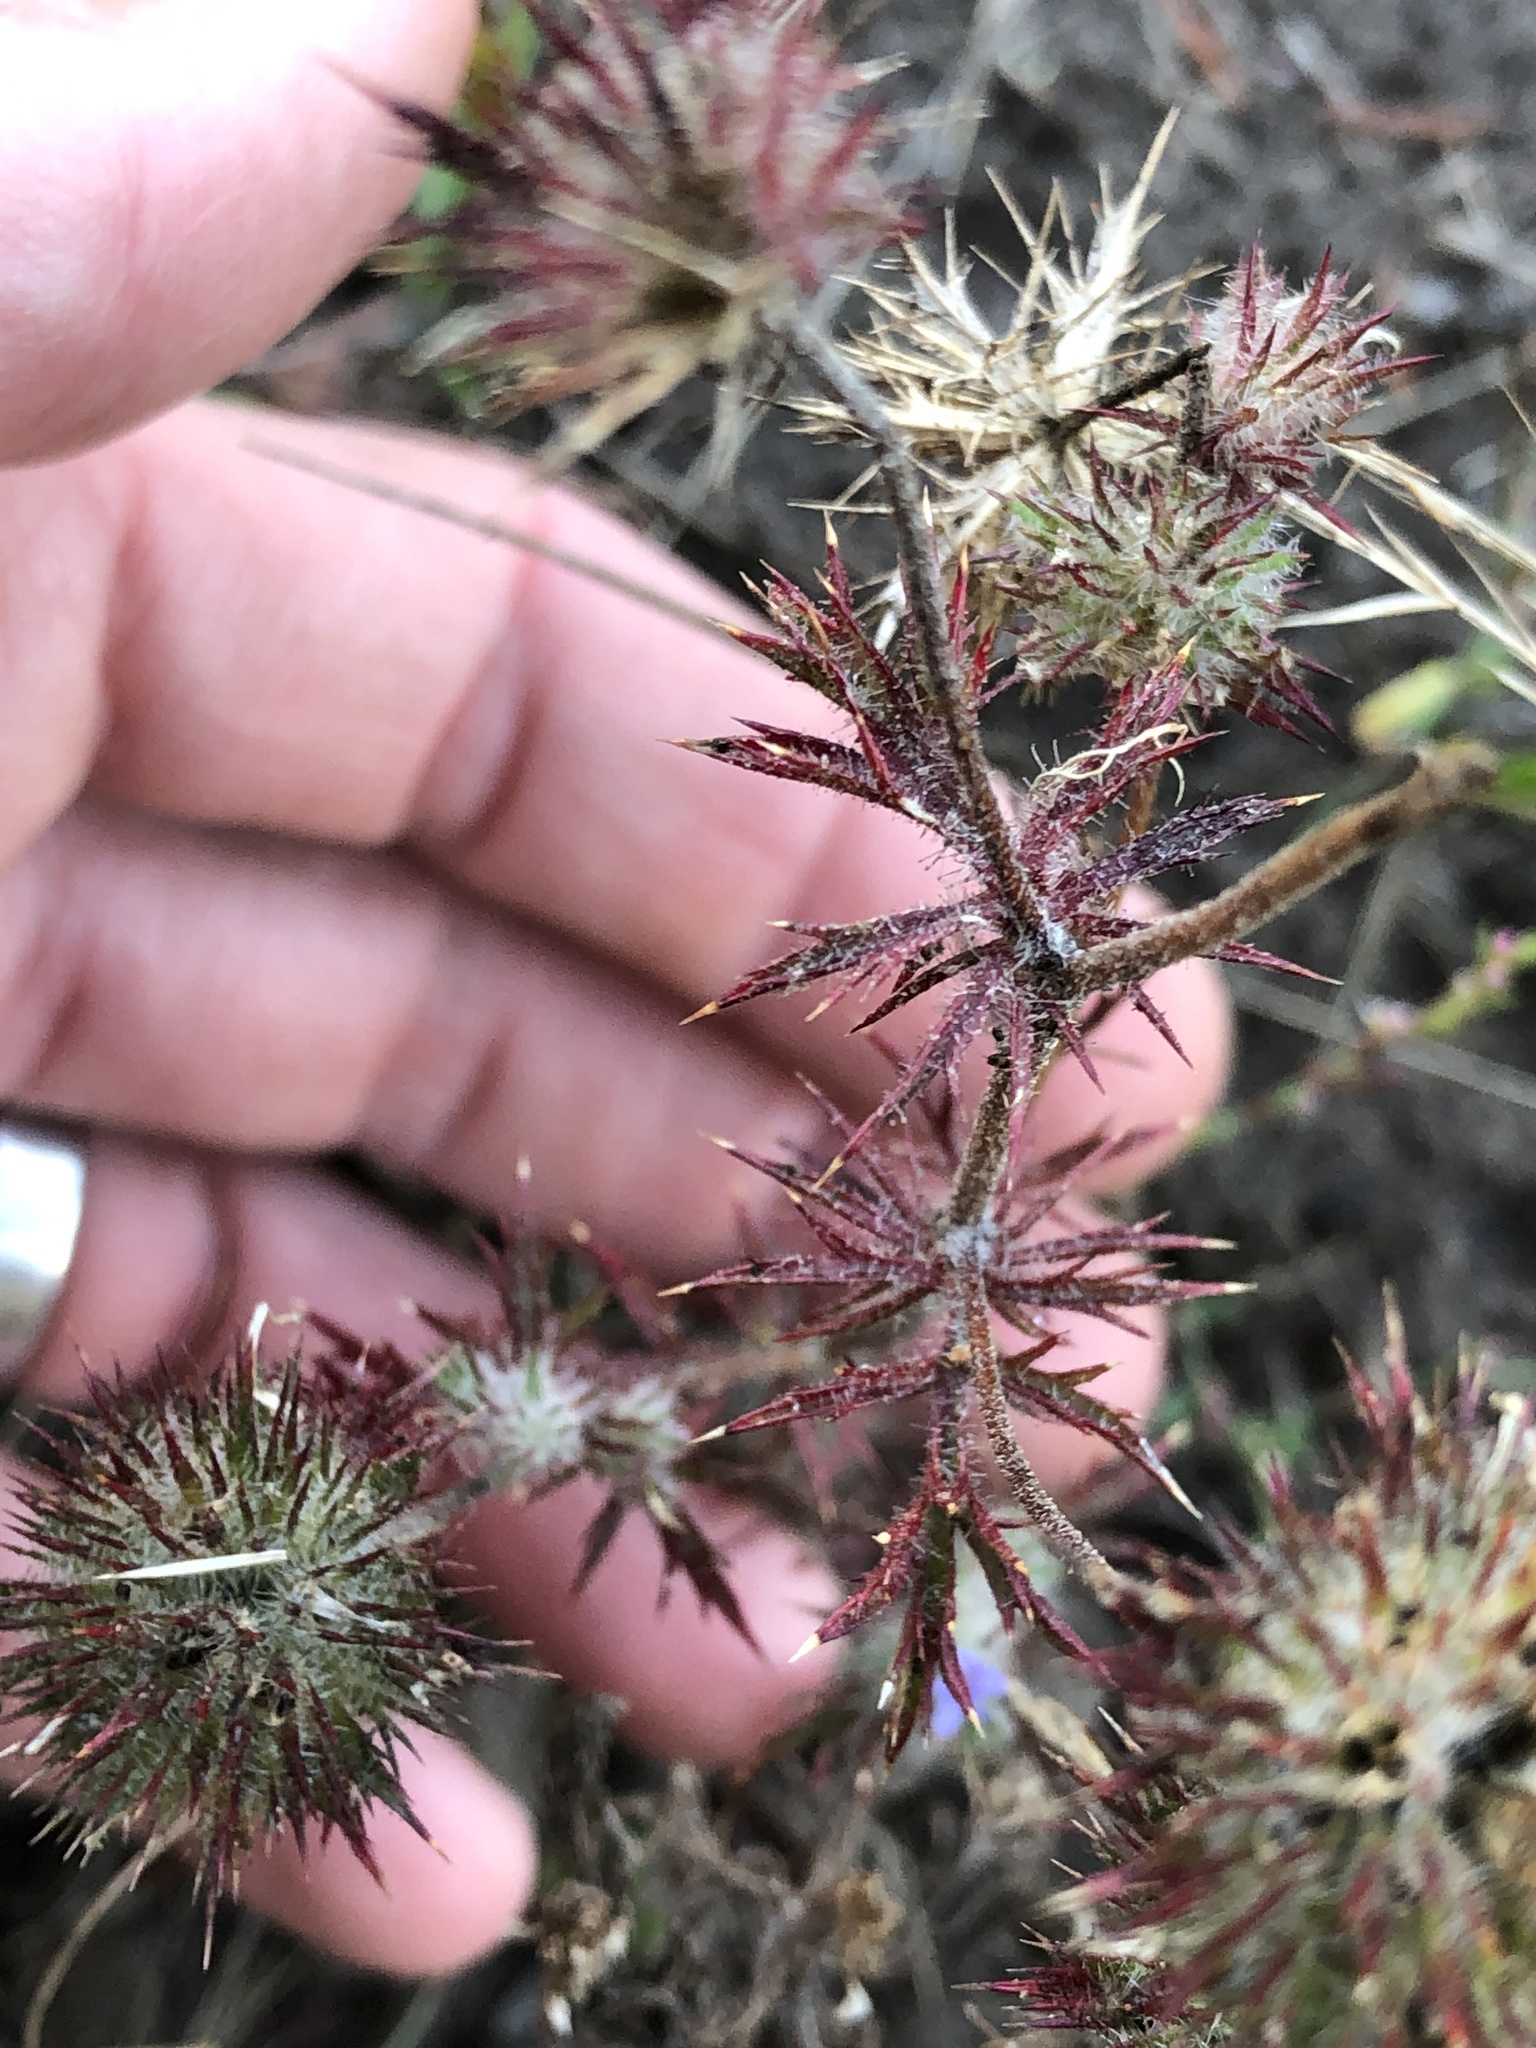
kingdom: Plantae
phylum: Tracheophyta
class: Magnoliopsida
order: Ericales
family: Polemoniaceae
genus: Navarretia
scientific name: Navarretia squarrosa
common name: Skunkweed
